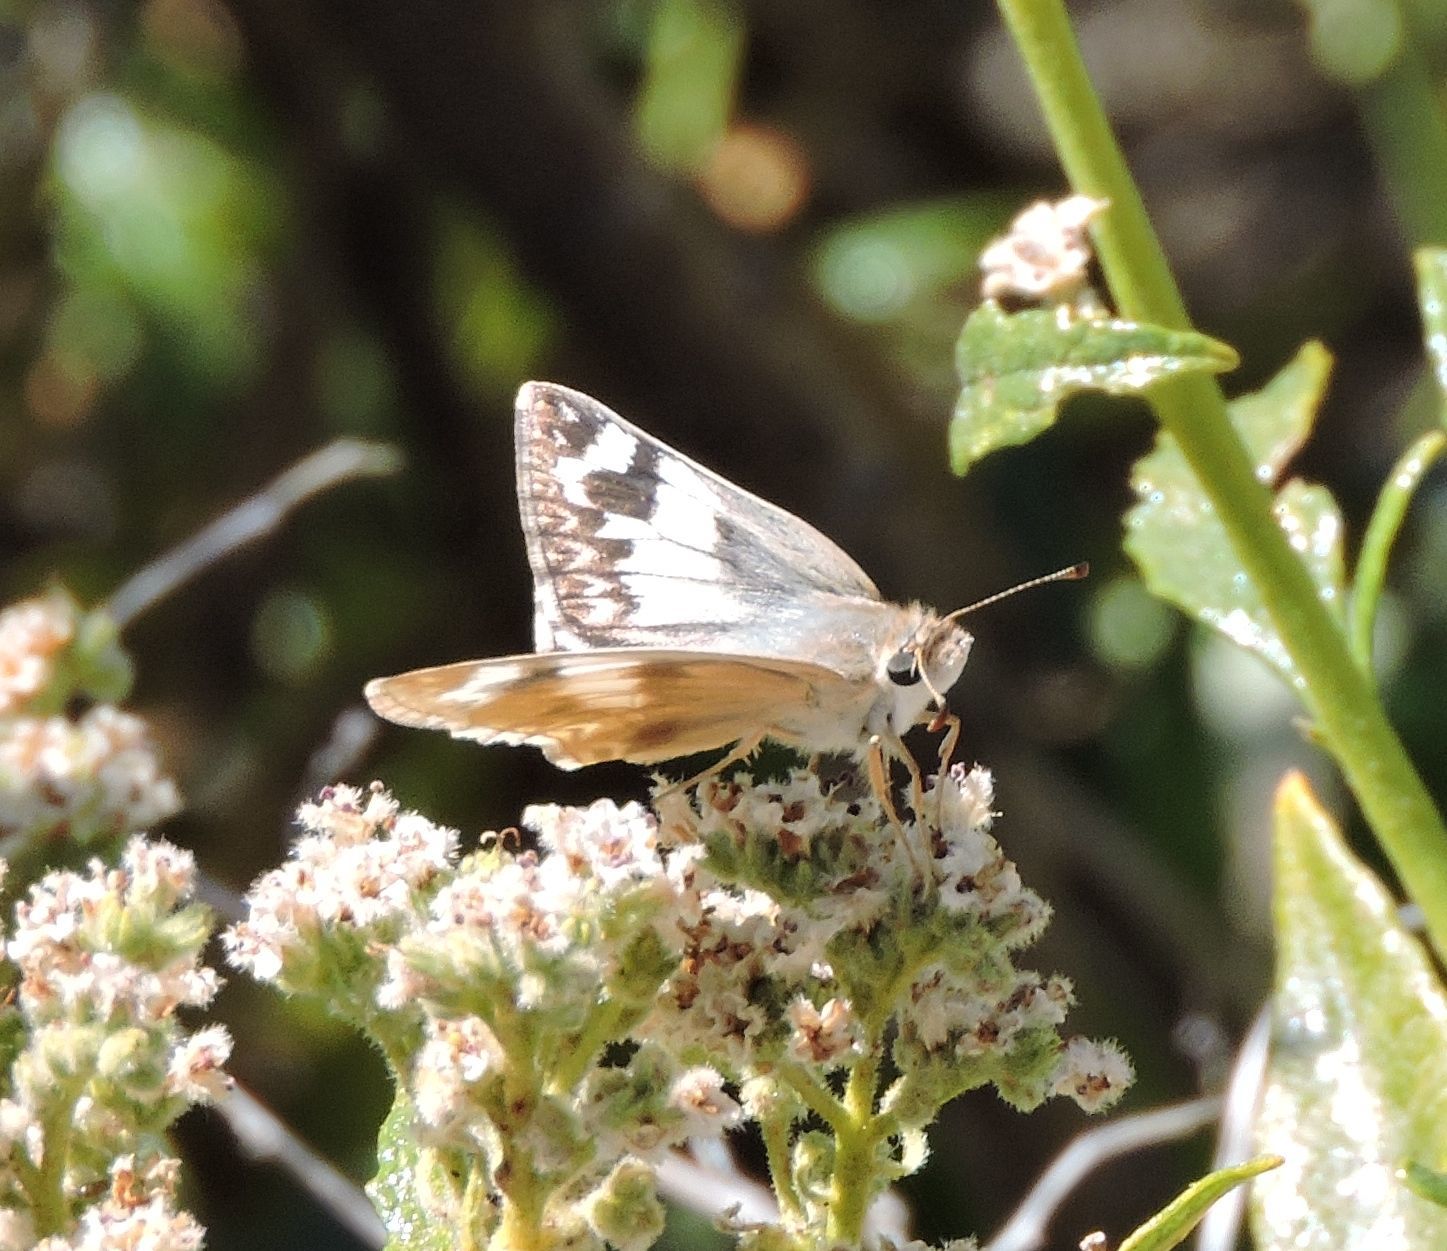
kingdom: Animalia
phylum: Arthropoda
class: Insecta
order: Lepidoptera
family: Hesperiidae
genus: Heliopetes
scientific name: Heliopetes ericetorum
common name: Northern white-skipper
